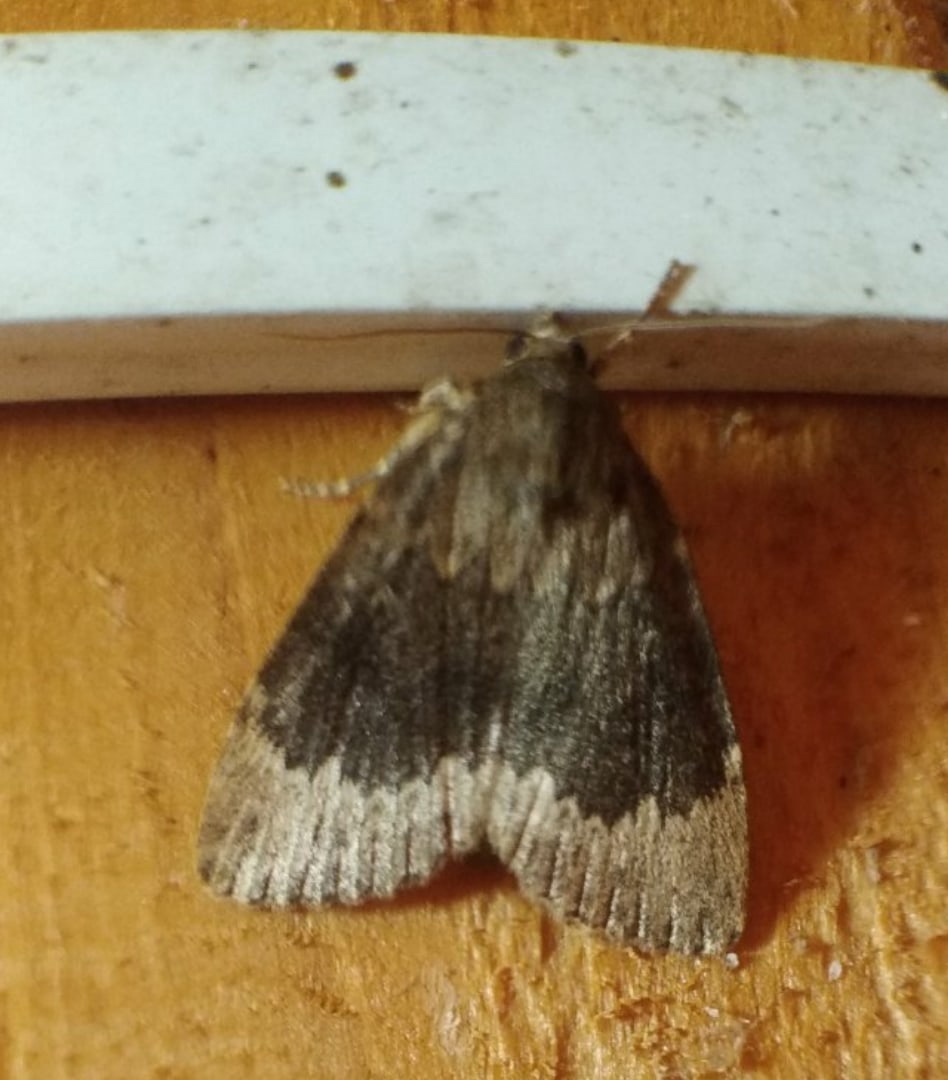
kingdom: Animalia
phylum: Arthropoda
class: Insecta
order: Lepidoptera
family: Noctuidae
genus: Amphipyra
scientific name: Amphipyra perflua
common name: Larger pale-tipped black moth
